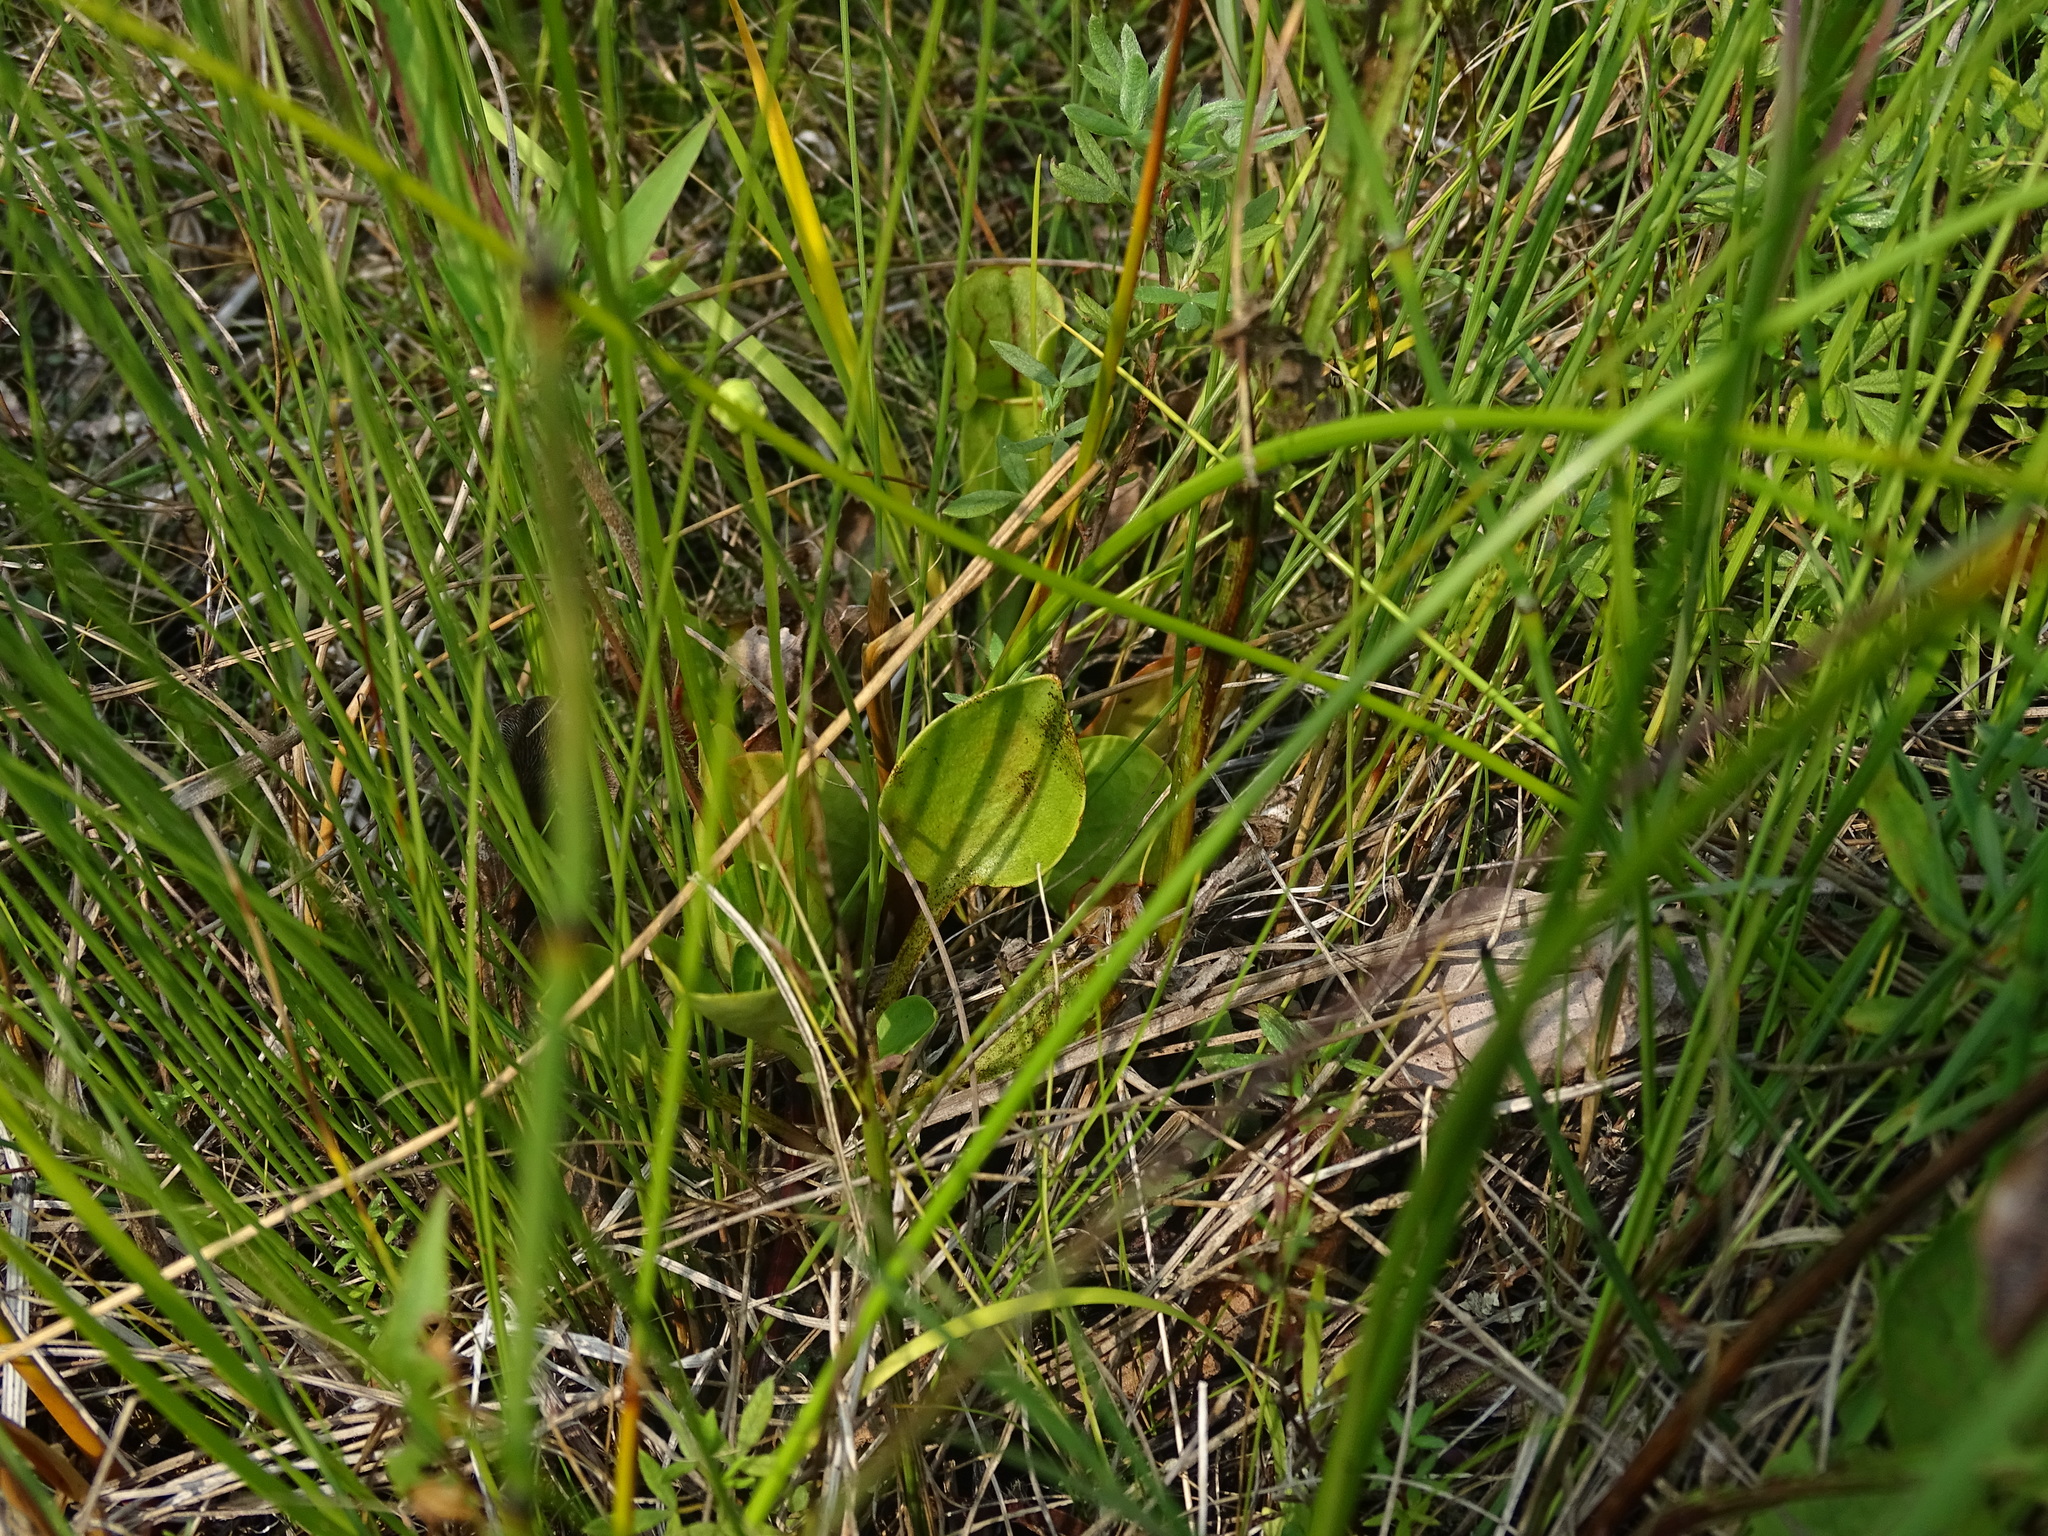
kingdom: Plantae
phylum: Tracheophyta
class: Magnoliopsida
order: Celastrales
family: Parnassiaceae
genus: Parnassia
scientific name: Parnassia glauca
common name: American grass-of-parnassus
